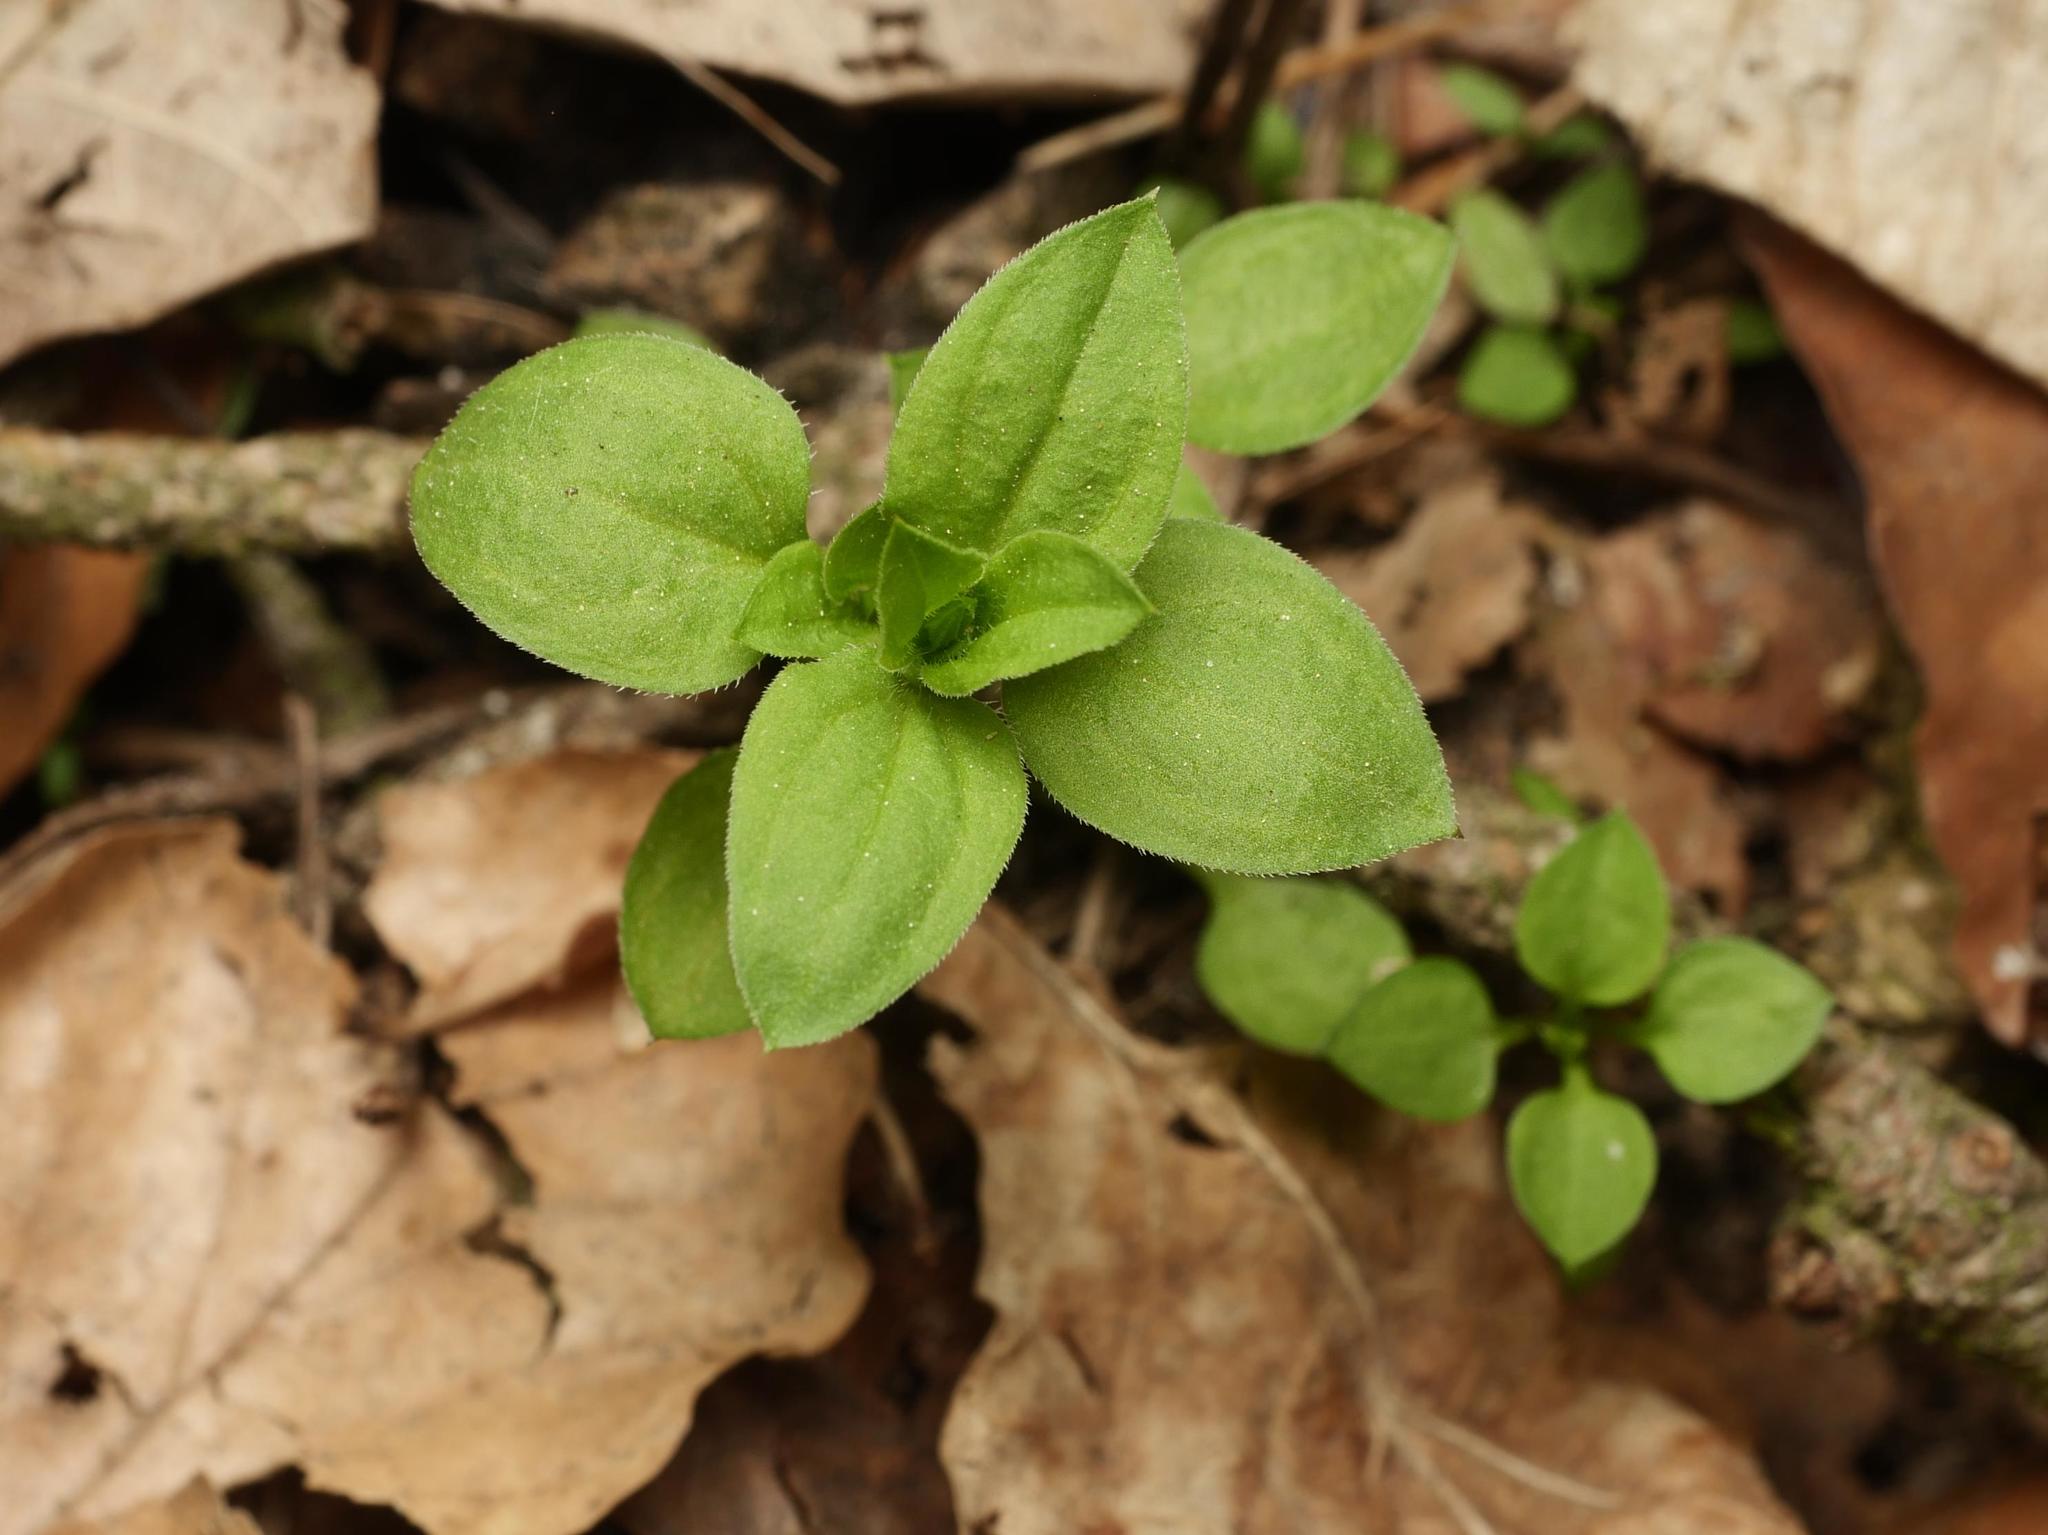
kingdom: Plantae
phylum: Tracheophyta
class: Magnoliopsida
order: Caryophyllales
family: Caryophyllaceae
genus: Moehringia
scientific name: Moehringia trinervia
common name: Three-nerved sandwort
